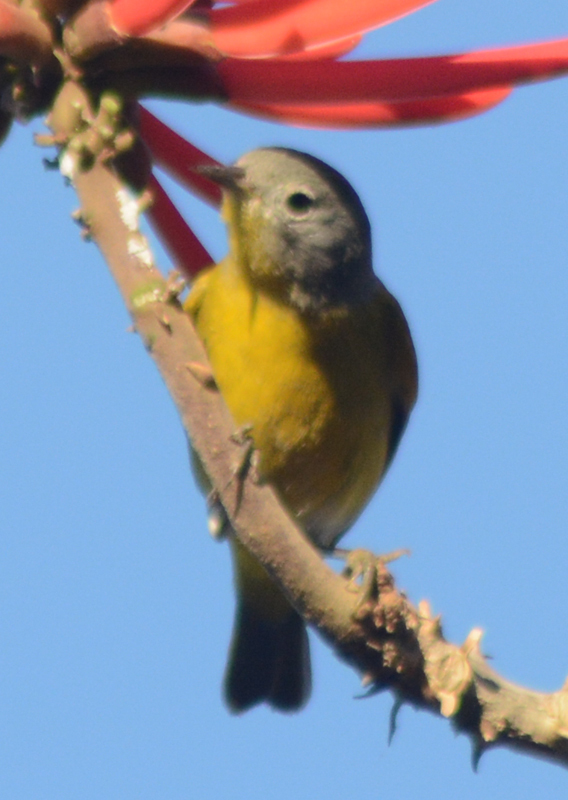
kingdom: Animalia
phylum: Chordata
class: Aves
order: Passeriformes
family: Parulidae
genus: Leiothlypis
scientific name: Leiothlypis ruficapilla
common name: Nashville warbler
